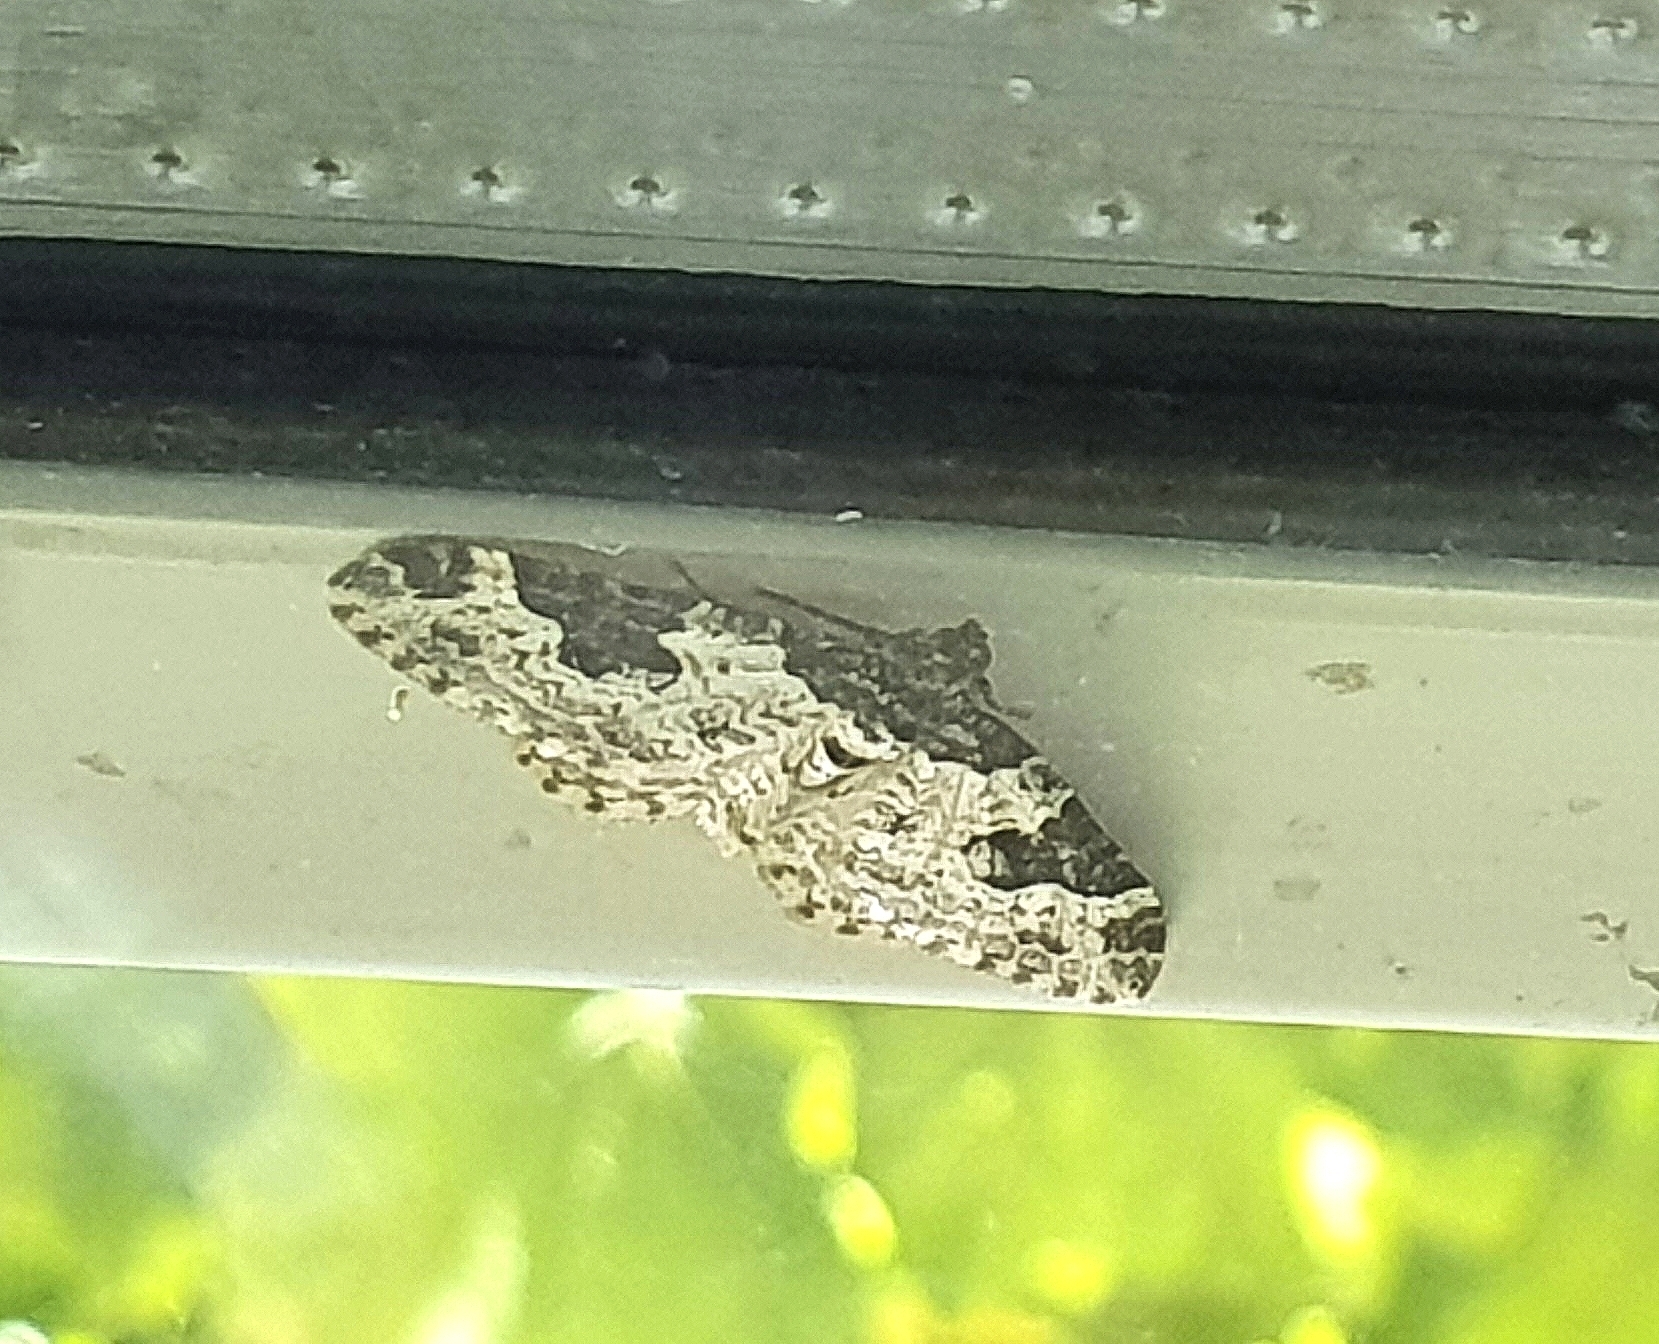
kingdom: Animalia
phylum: Arthropoda
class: Insecta
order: Lepidoptera
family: Geometridae
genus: Xanthorhoe
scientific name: Xanthorhoe fluctuata
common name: Garden carpet
